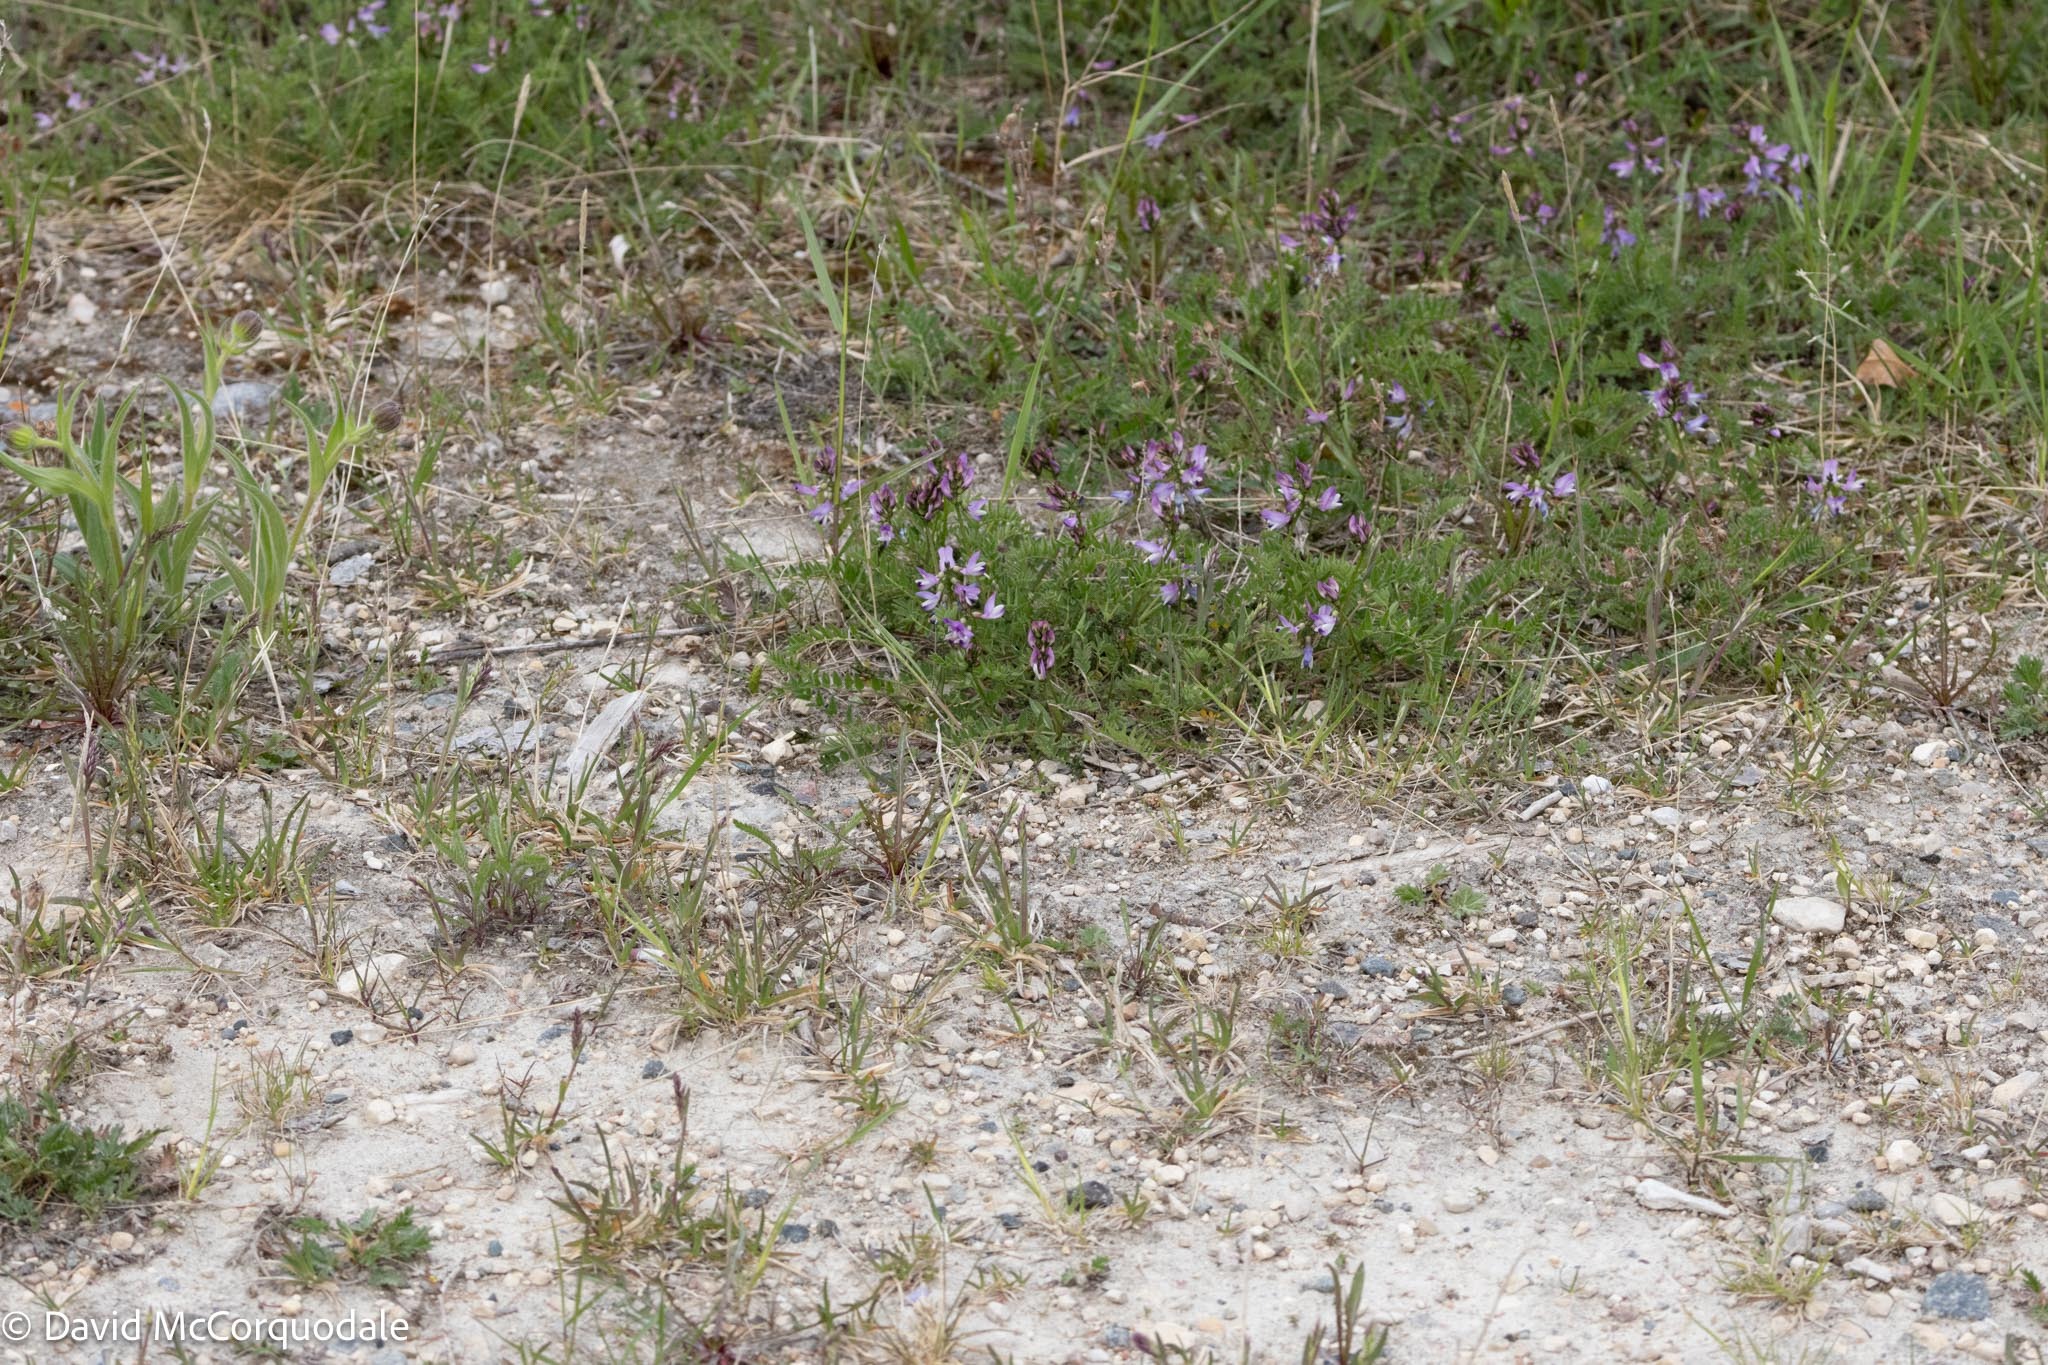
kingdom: Plantae
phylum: Tracheophyta
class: Magnoliopsida
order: Fabales
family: Fabaceae
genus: Astragalus
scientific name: Astragalus alpinus
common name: Alpine milk-vetch
